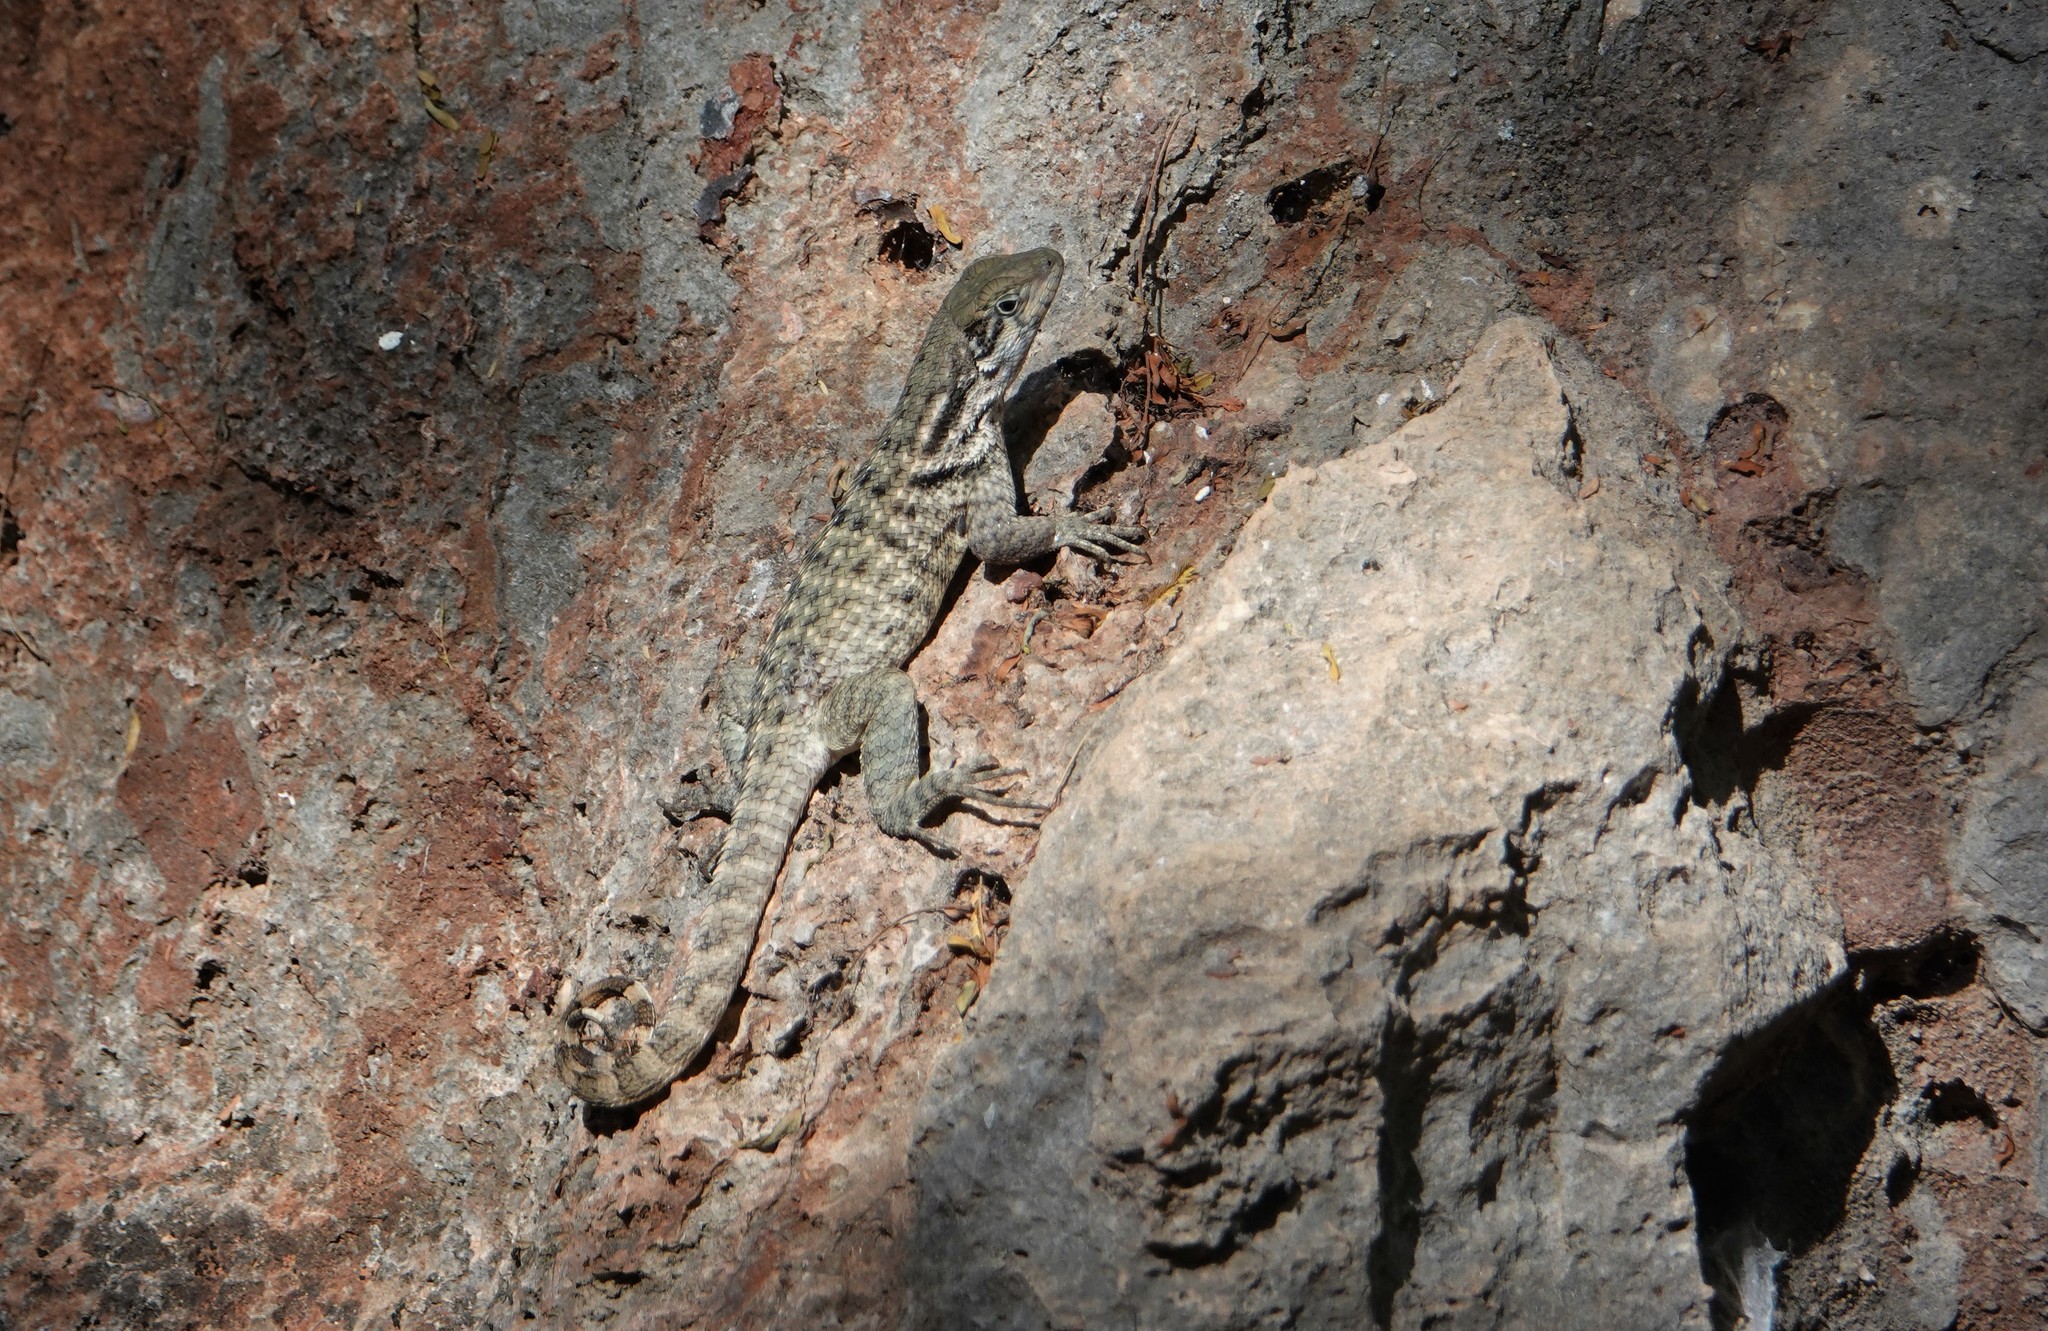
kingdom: Animalia
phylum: Chordata
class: Squamata
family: Leiocephalidae
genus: Leiocephalus
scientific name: Leiocephalus carinatus
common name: Northern curly-tailed lizard
